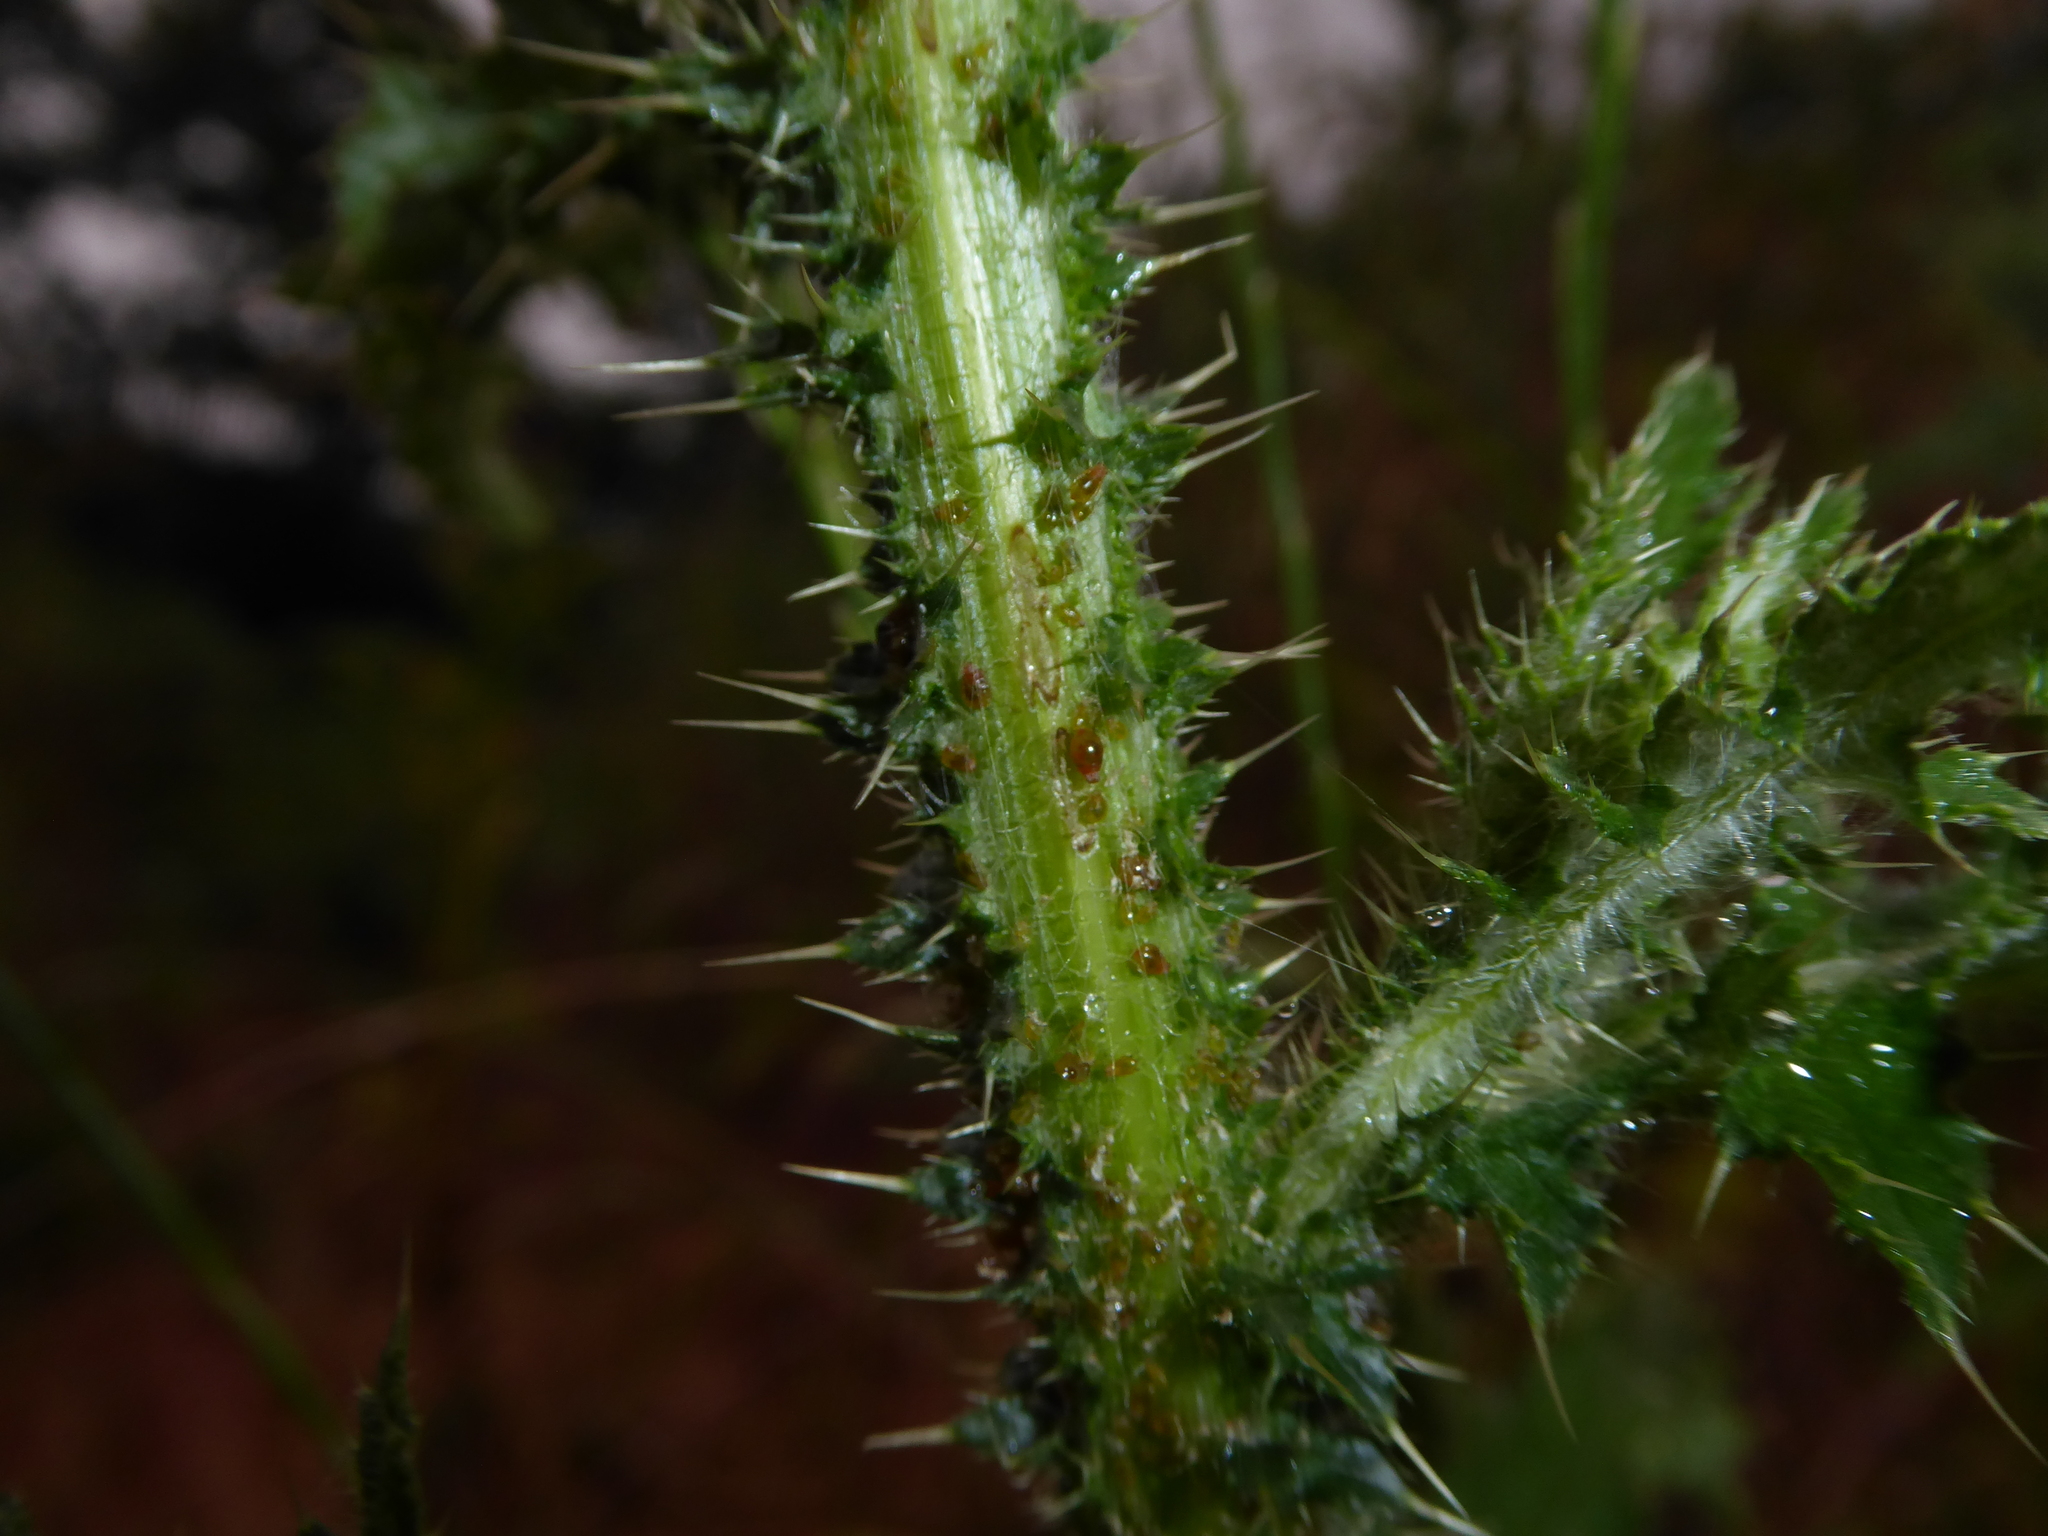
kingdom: Plantae
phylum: Tracheophyta
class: Magnoliopsida
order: Asterales
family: Asteraceae
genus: Carduus
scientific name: Carduus acanthoides
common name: Plumeless thistle
